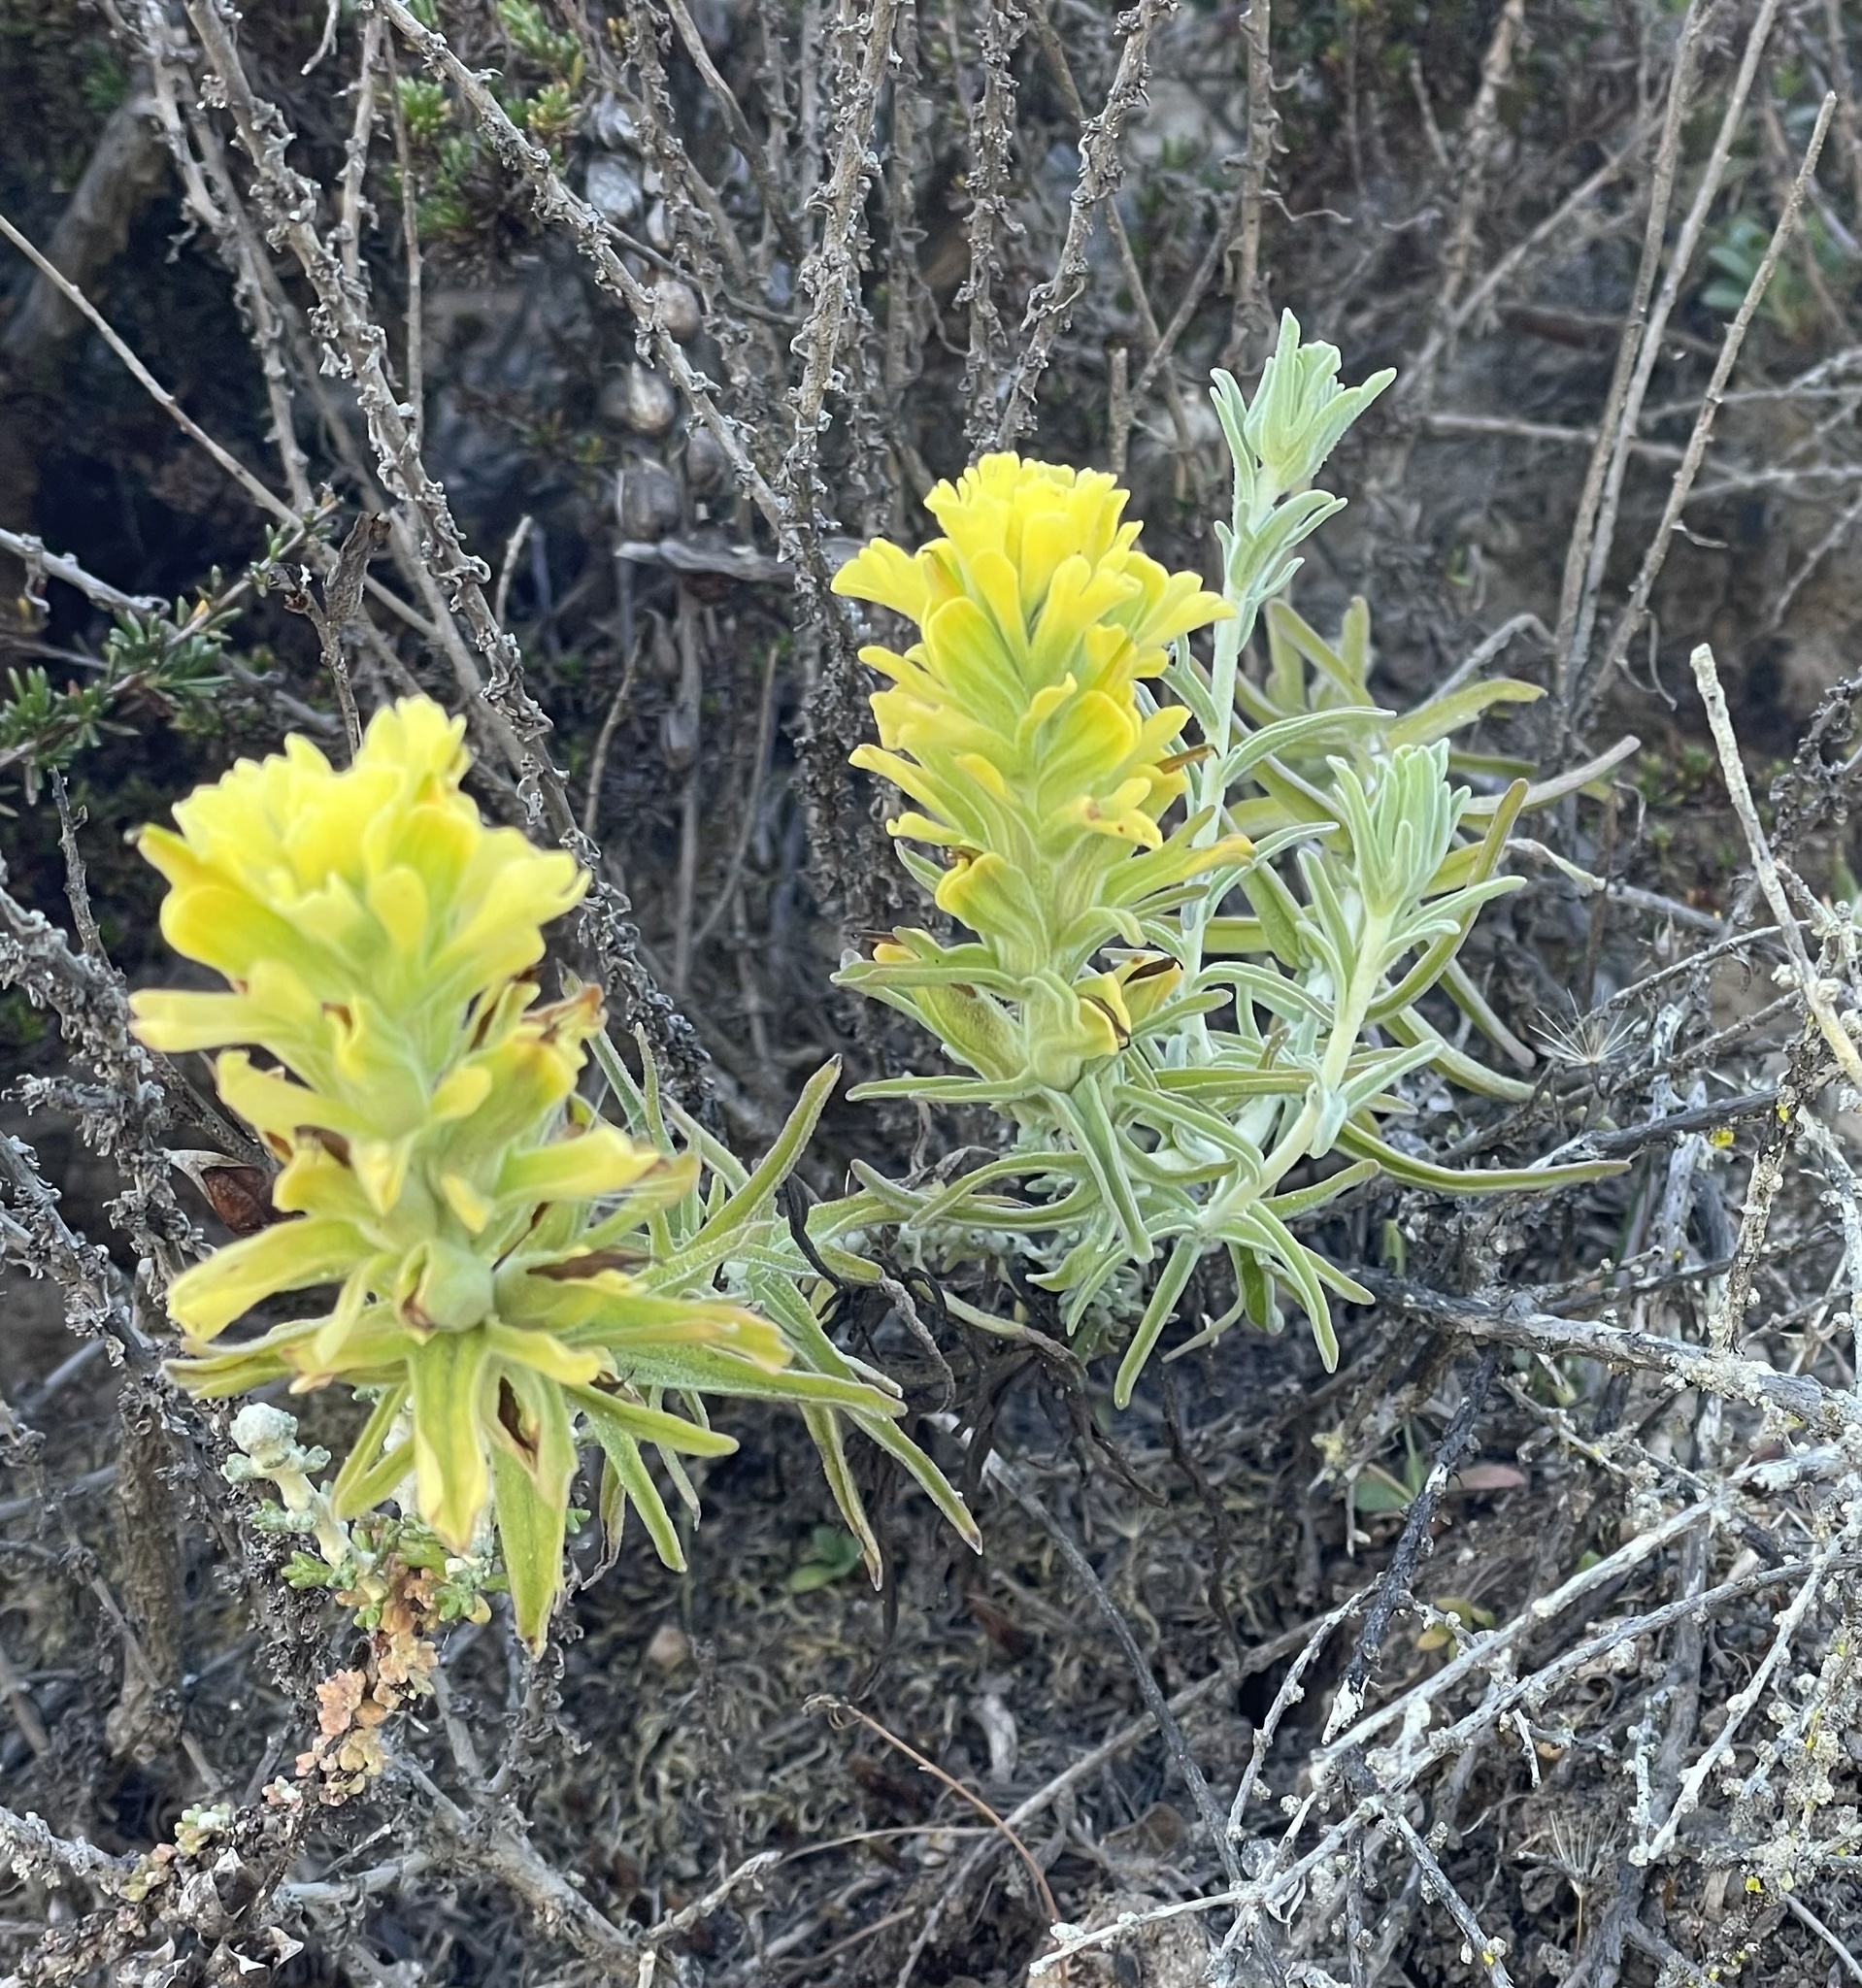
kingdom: Plantae
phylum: Tracheophyta
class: Magnoliopsida
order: Lamiales
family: Orobanchaceae
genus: Castilleja
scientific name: Castilleja foliolosa
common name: Woolly indian paintbrush
